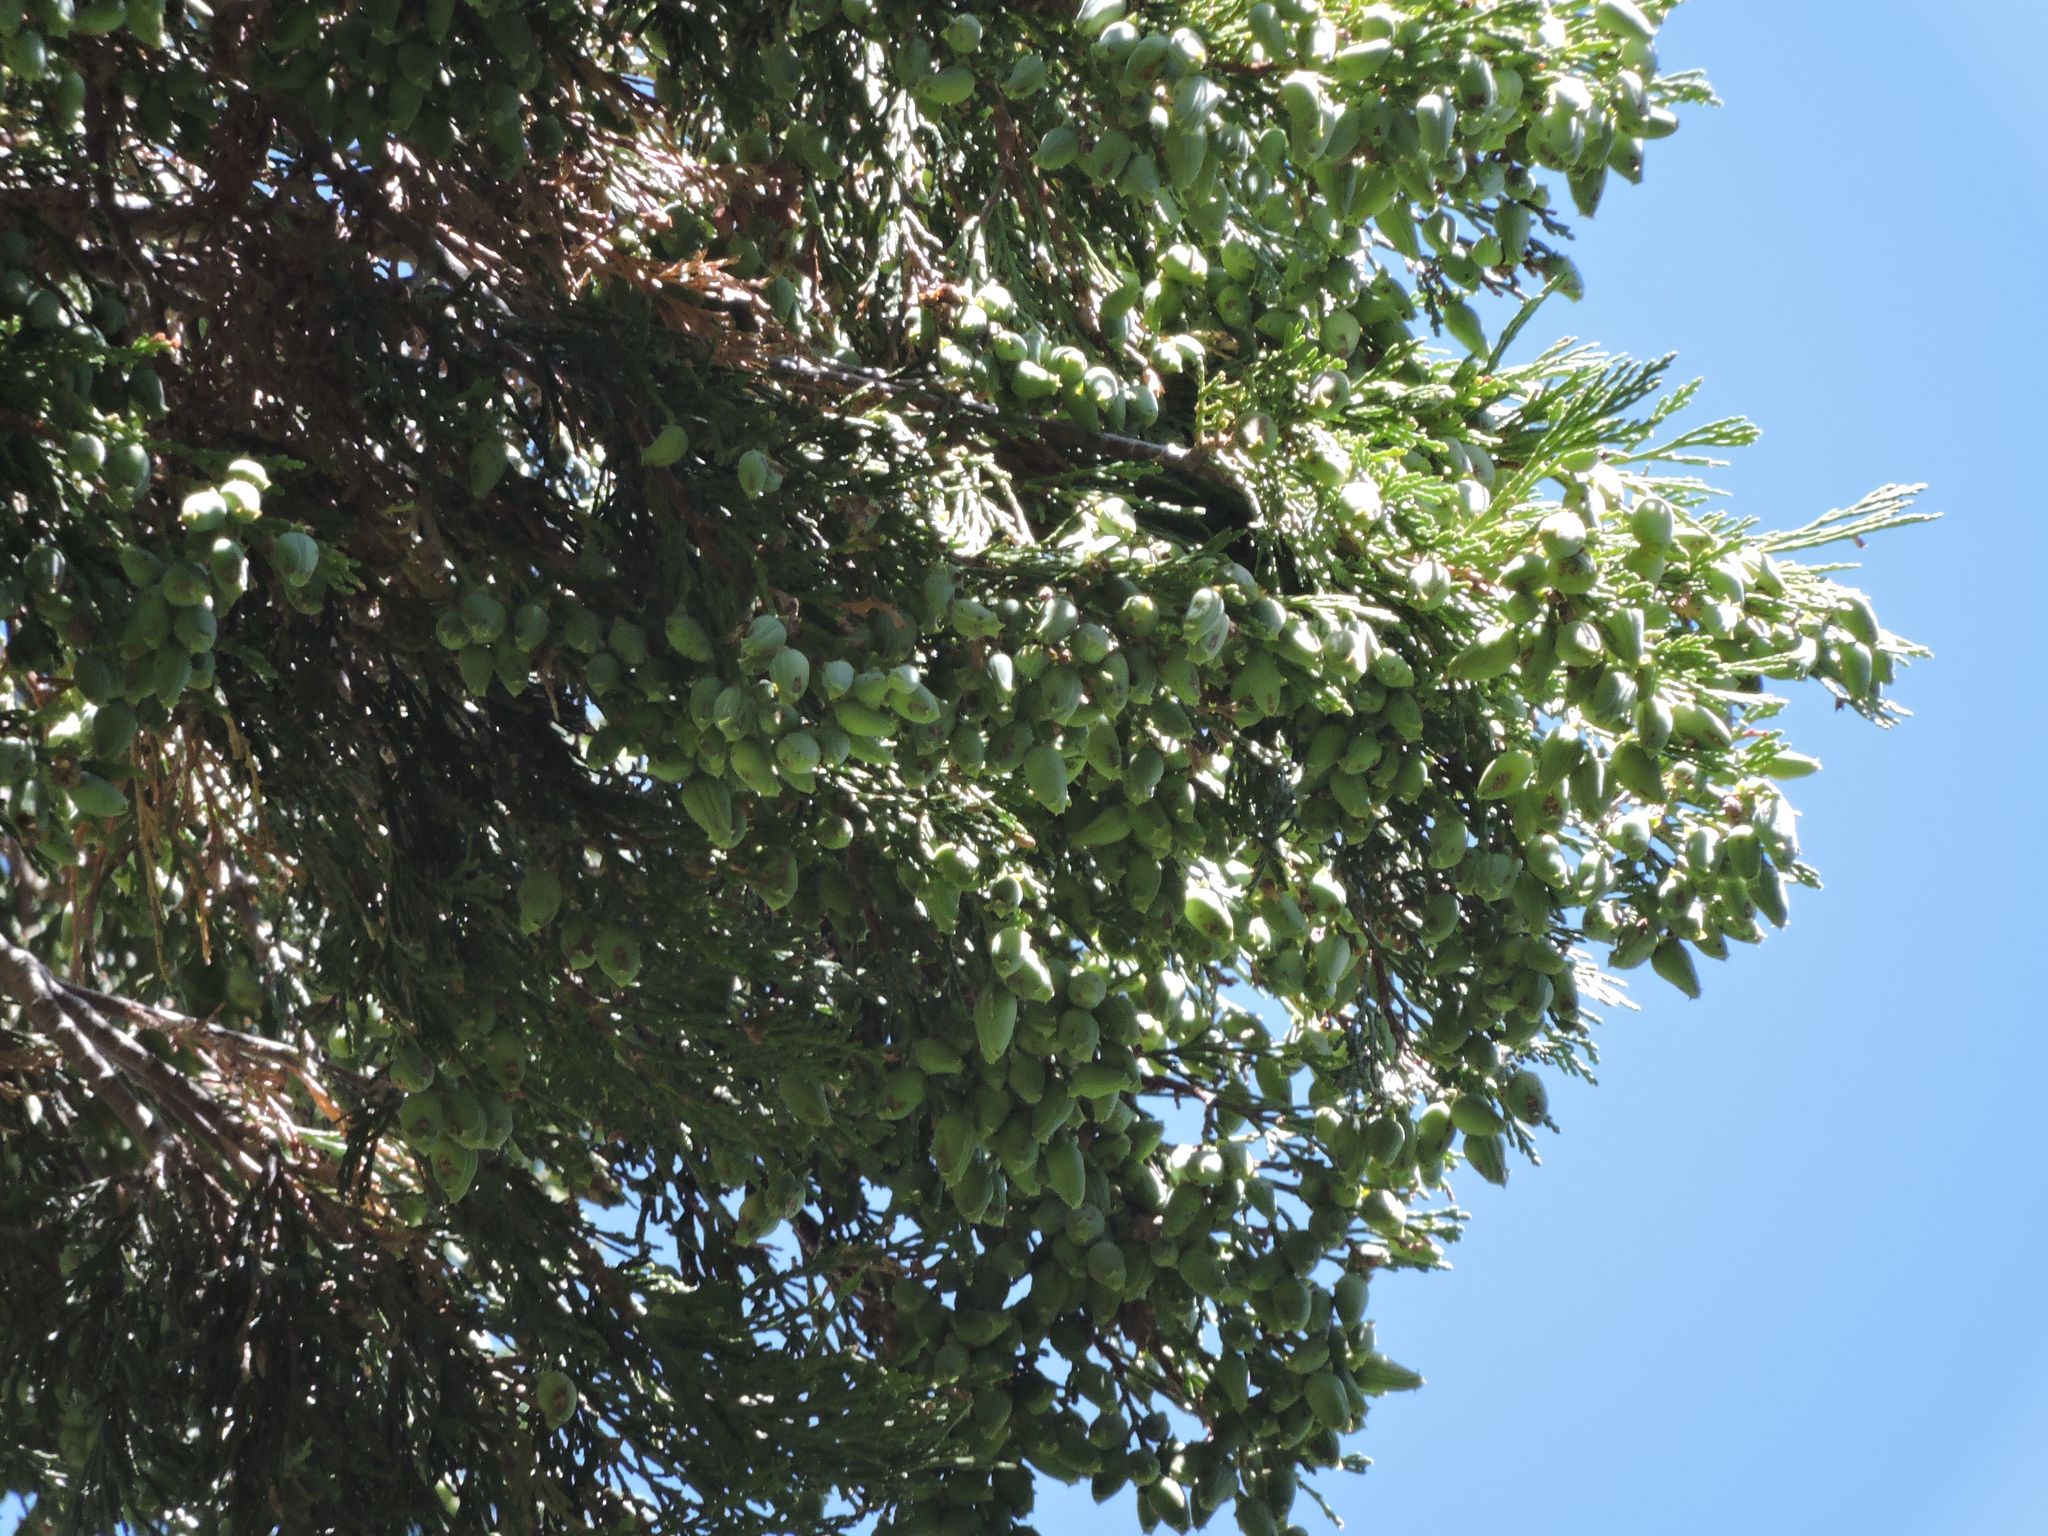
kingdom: Plantae
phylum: Tracheophyta
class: Pinopsida
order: Pinales
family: Cupressaceae
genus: Calocedrus
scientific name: Calocedrus decurrens
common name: Californian incense-cedar
